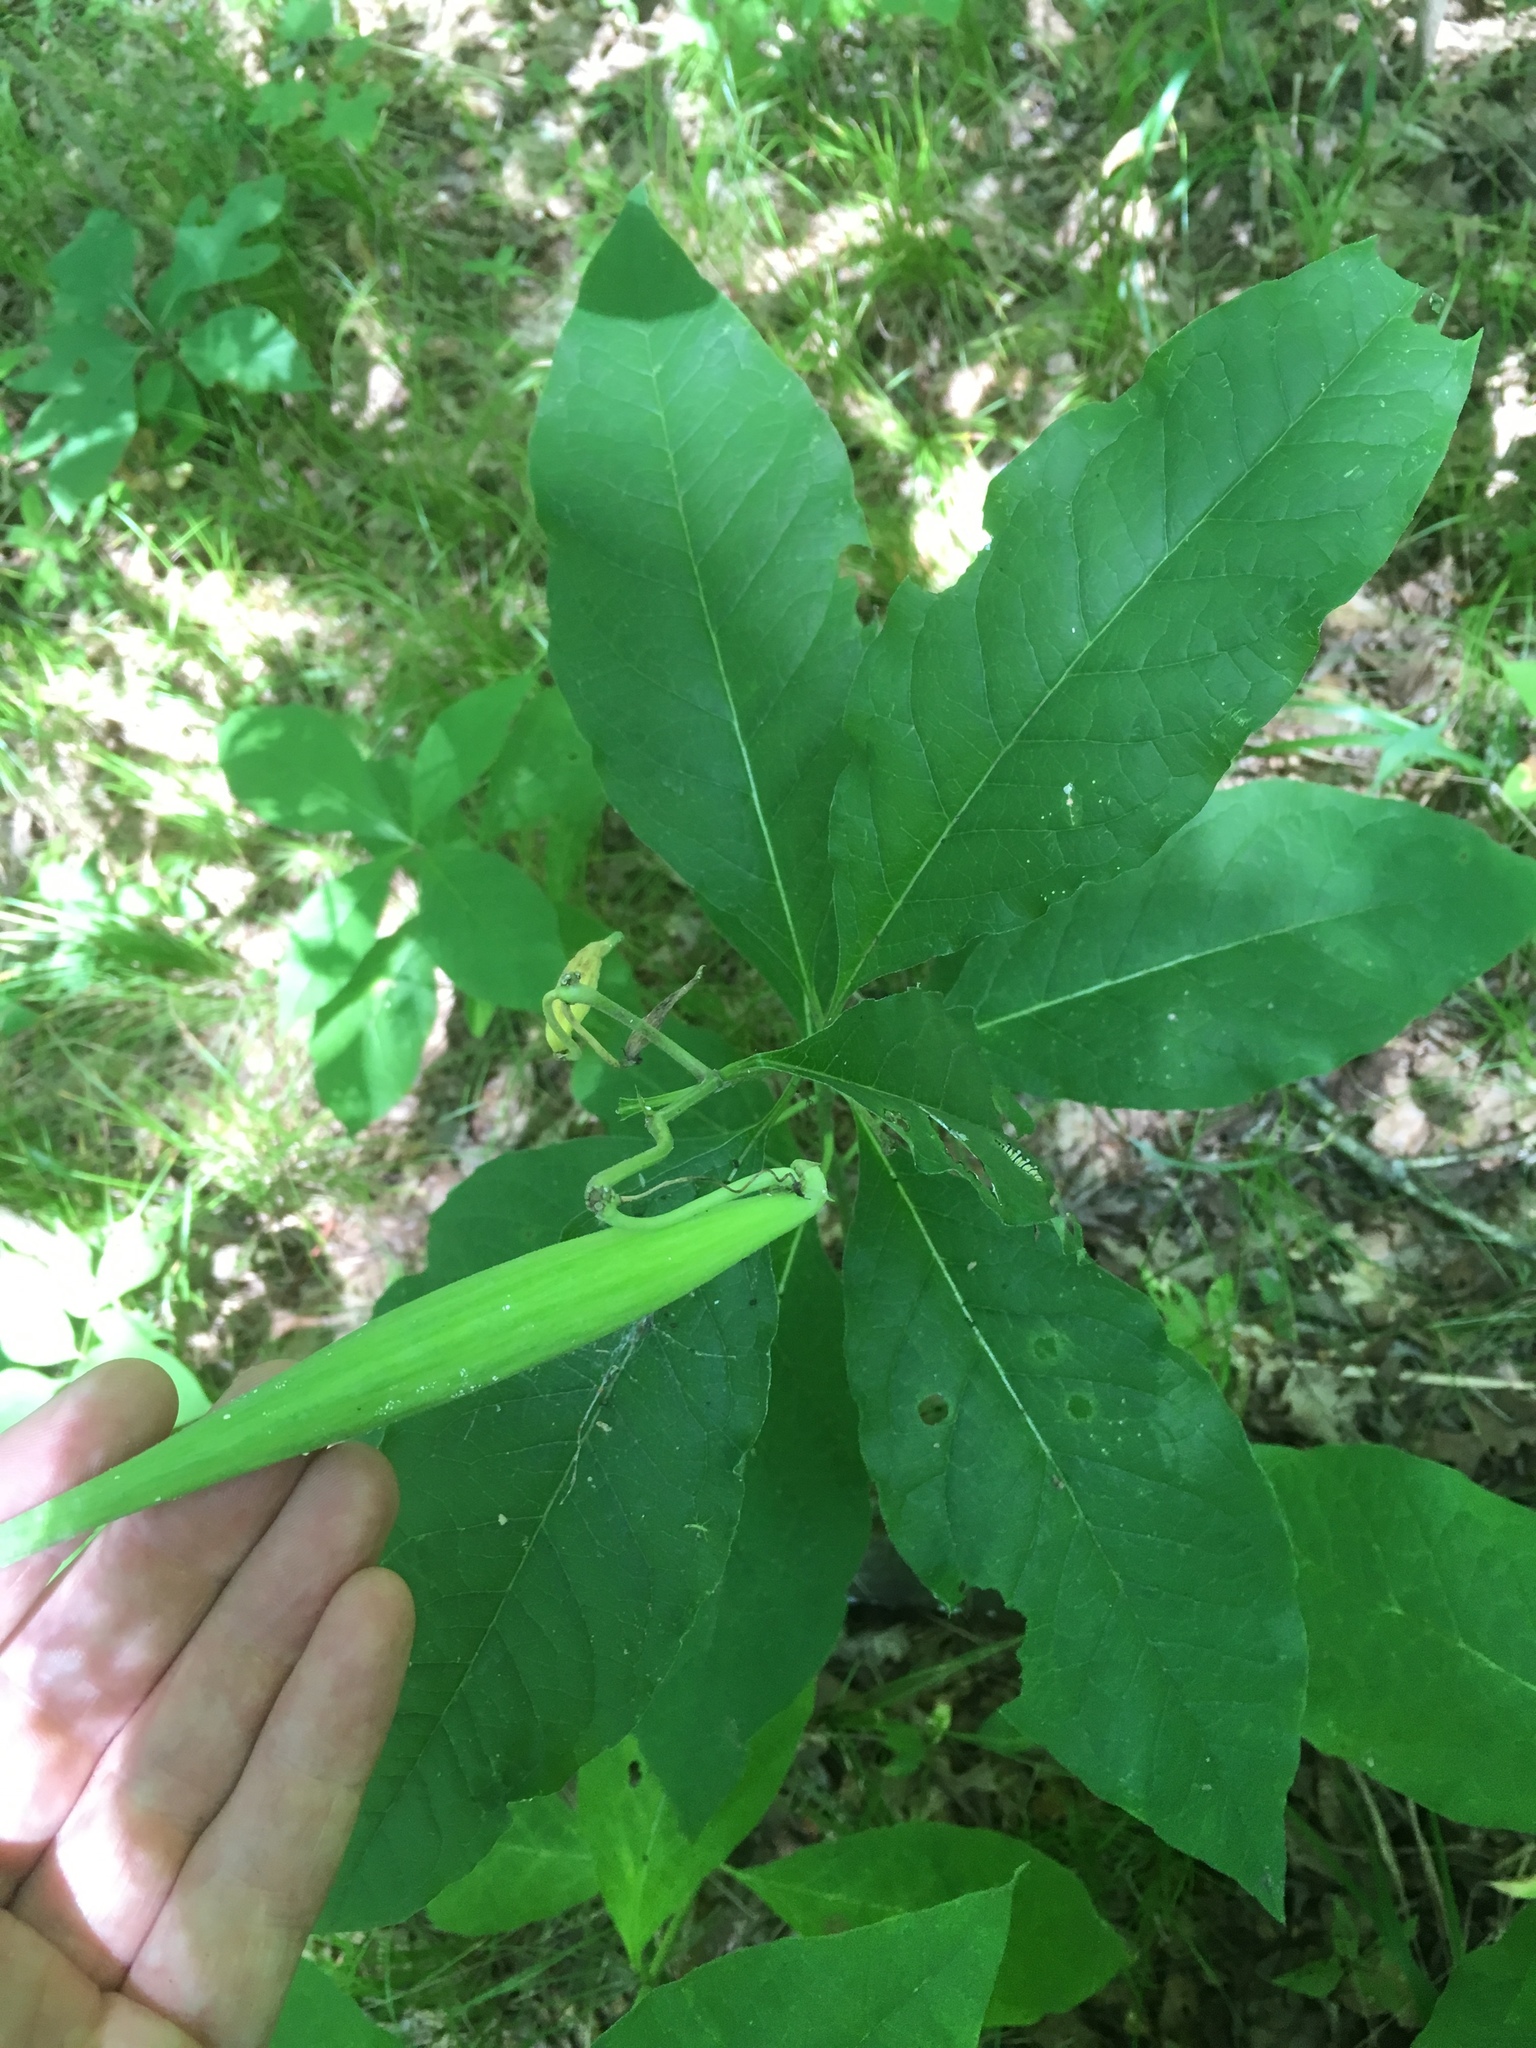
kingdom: Plantae
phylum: Tracheophyta
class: Magnoliopsida
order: Gentianales
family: Apocynaceae
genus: Asclepias
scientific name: Asclepias exaltata
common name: Poke milkweed
